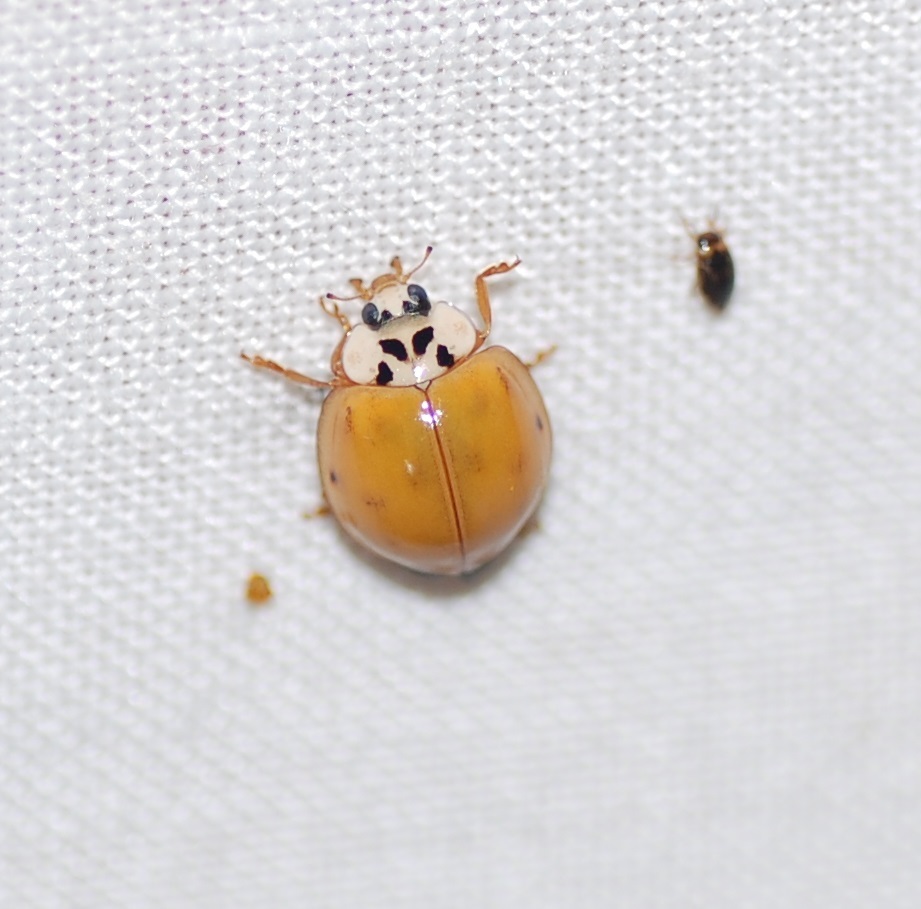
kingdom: Animalia
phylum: Arthropoda
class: Insecta
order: Coleoptera
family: Coccinellidae
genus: Harmonia
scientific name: Harmonia axyridis
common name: Harlequin ladybird
